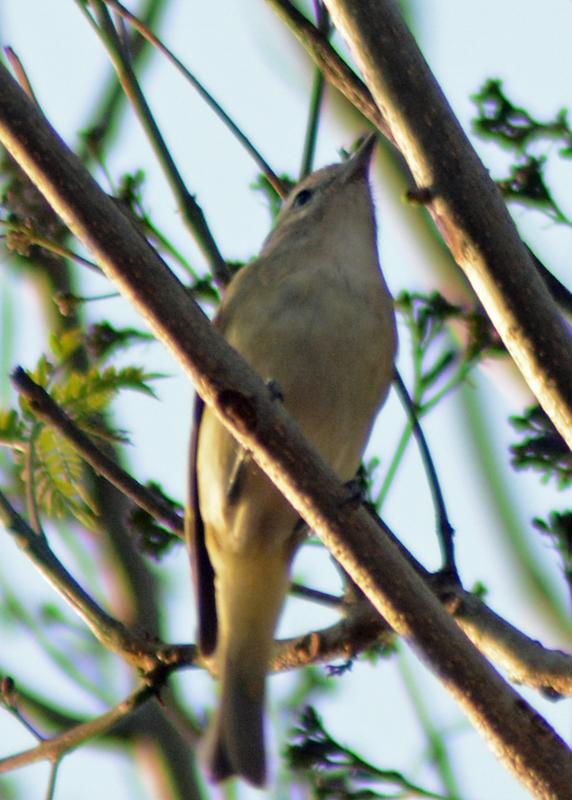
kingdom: Animalia
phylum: Chordata
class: Aves
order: Passeriformes
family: Vireonidae
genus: Vireo
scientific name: Vireo gilvus
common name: Warbling vireo
